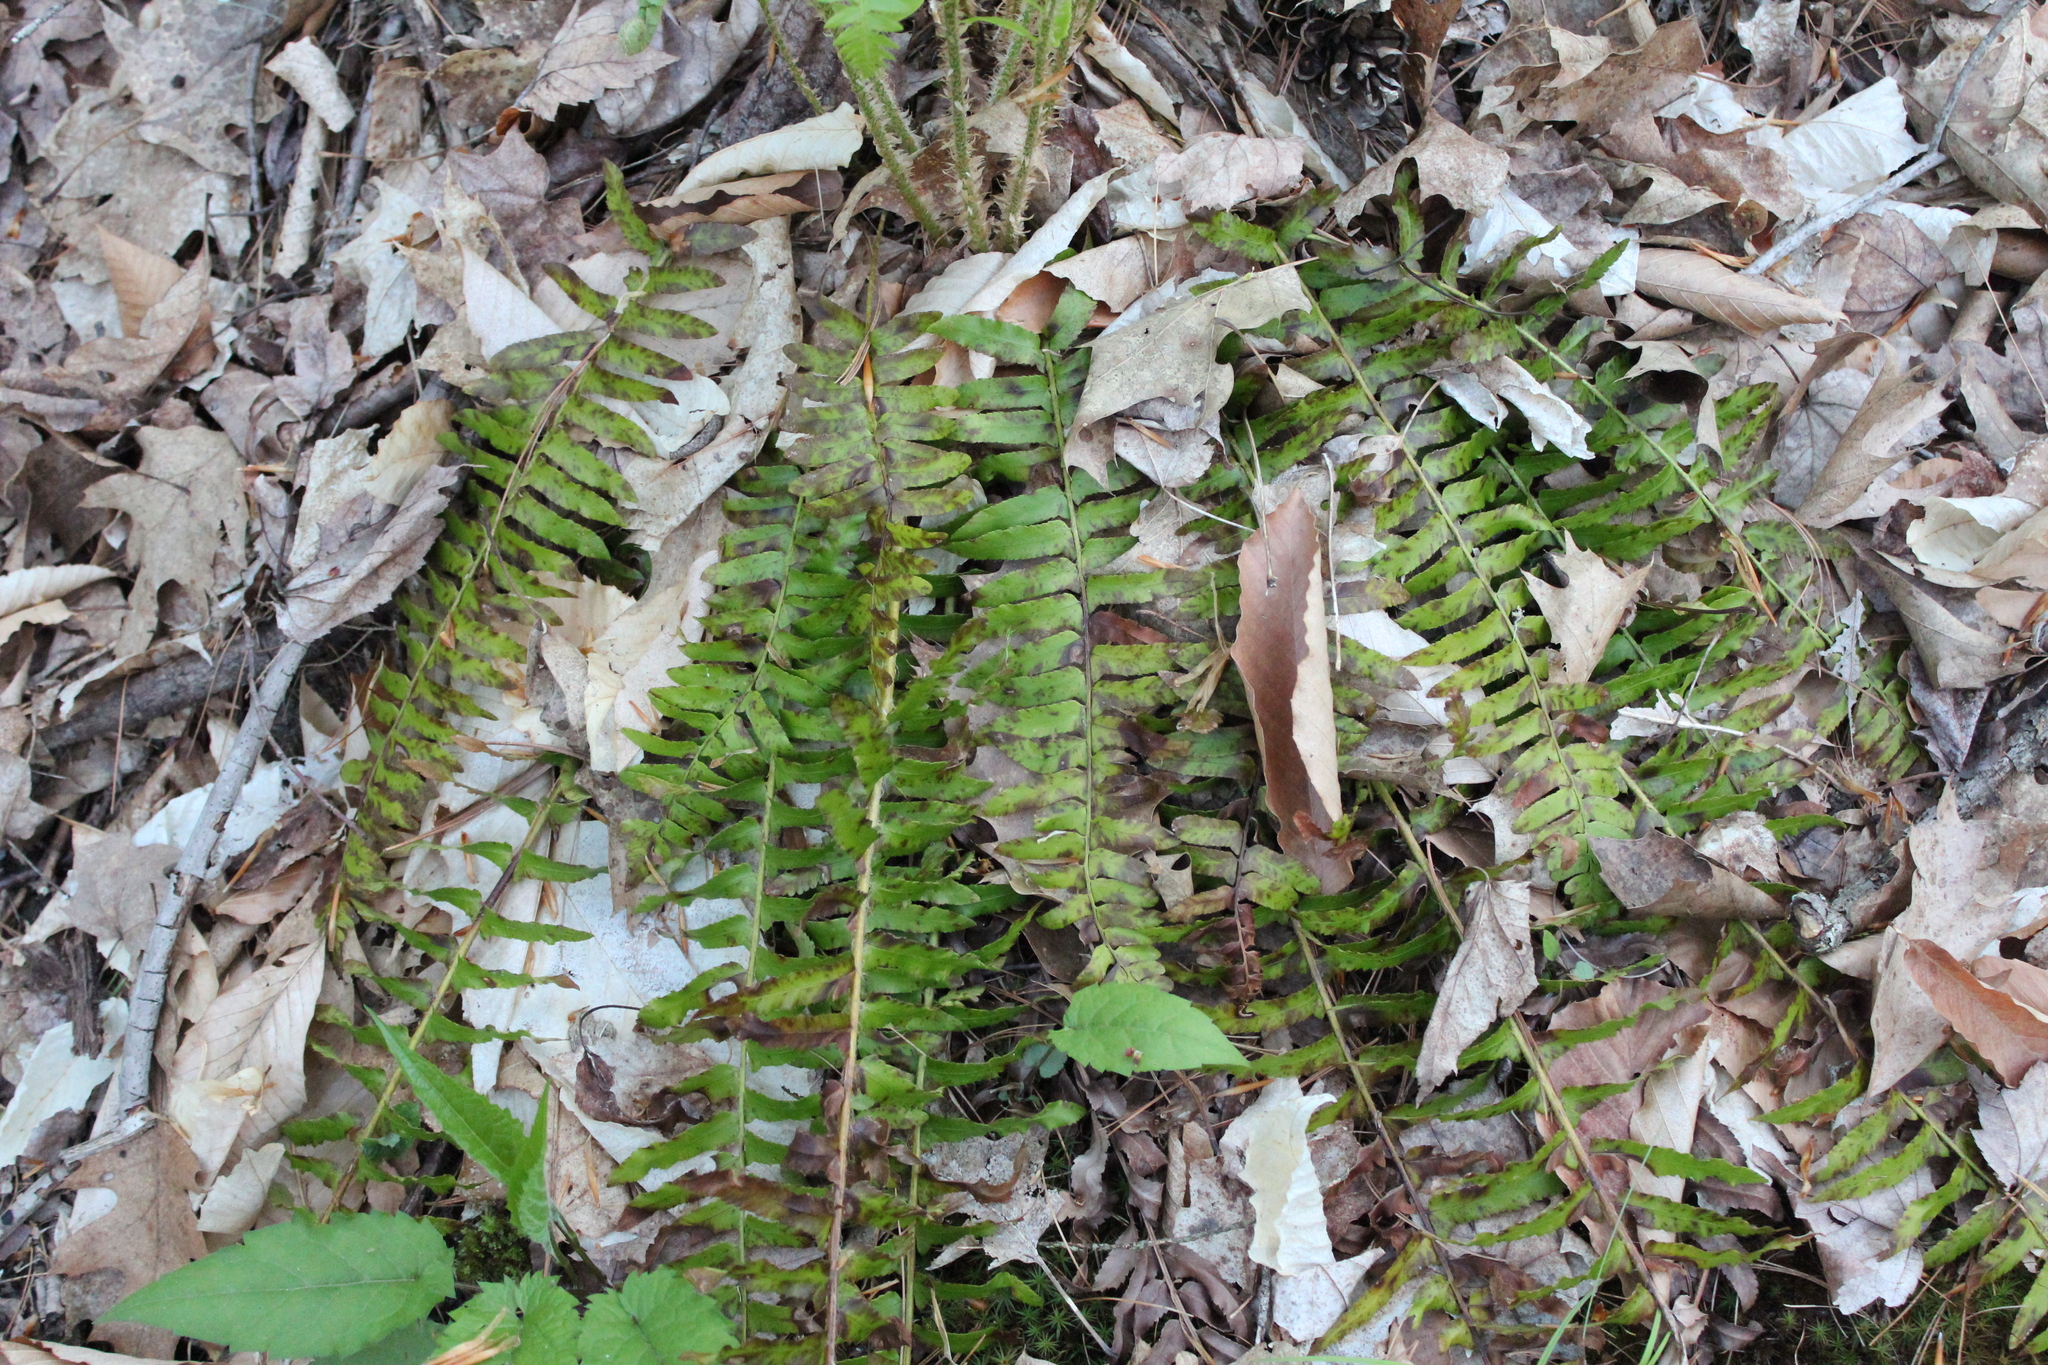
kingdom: Plantae
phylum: Tracheophyta
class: Polypodiopsida
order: Polypodiales
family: Dryopteridaceae
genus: Polystichum
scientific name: Polystichum acrostichoides
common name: Christmas fern
